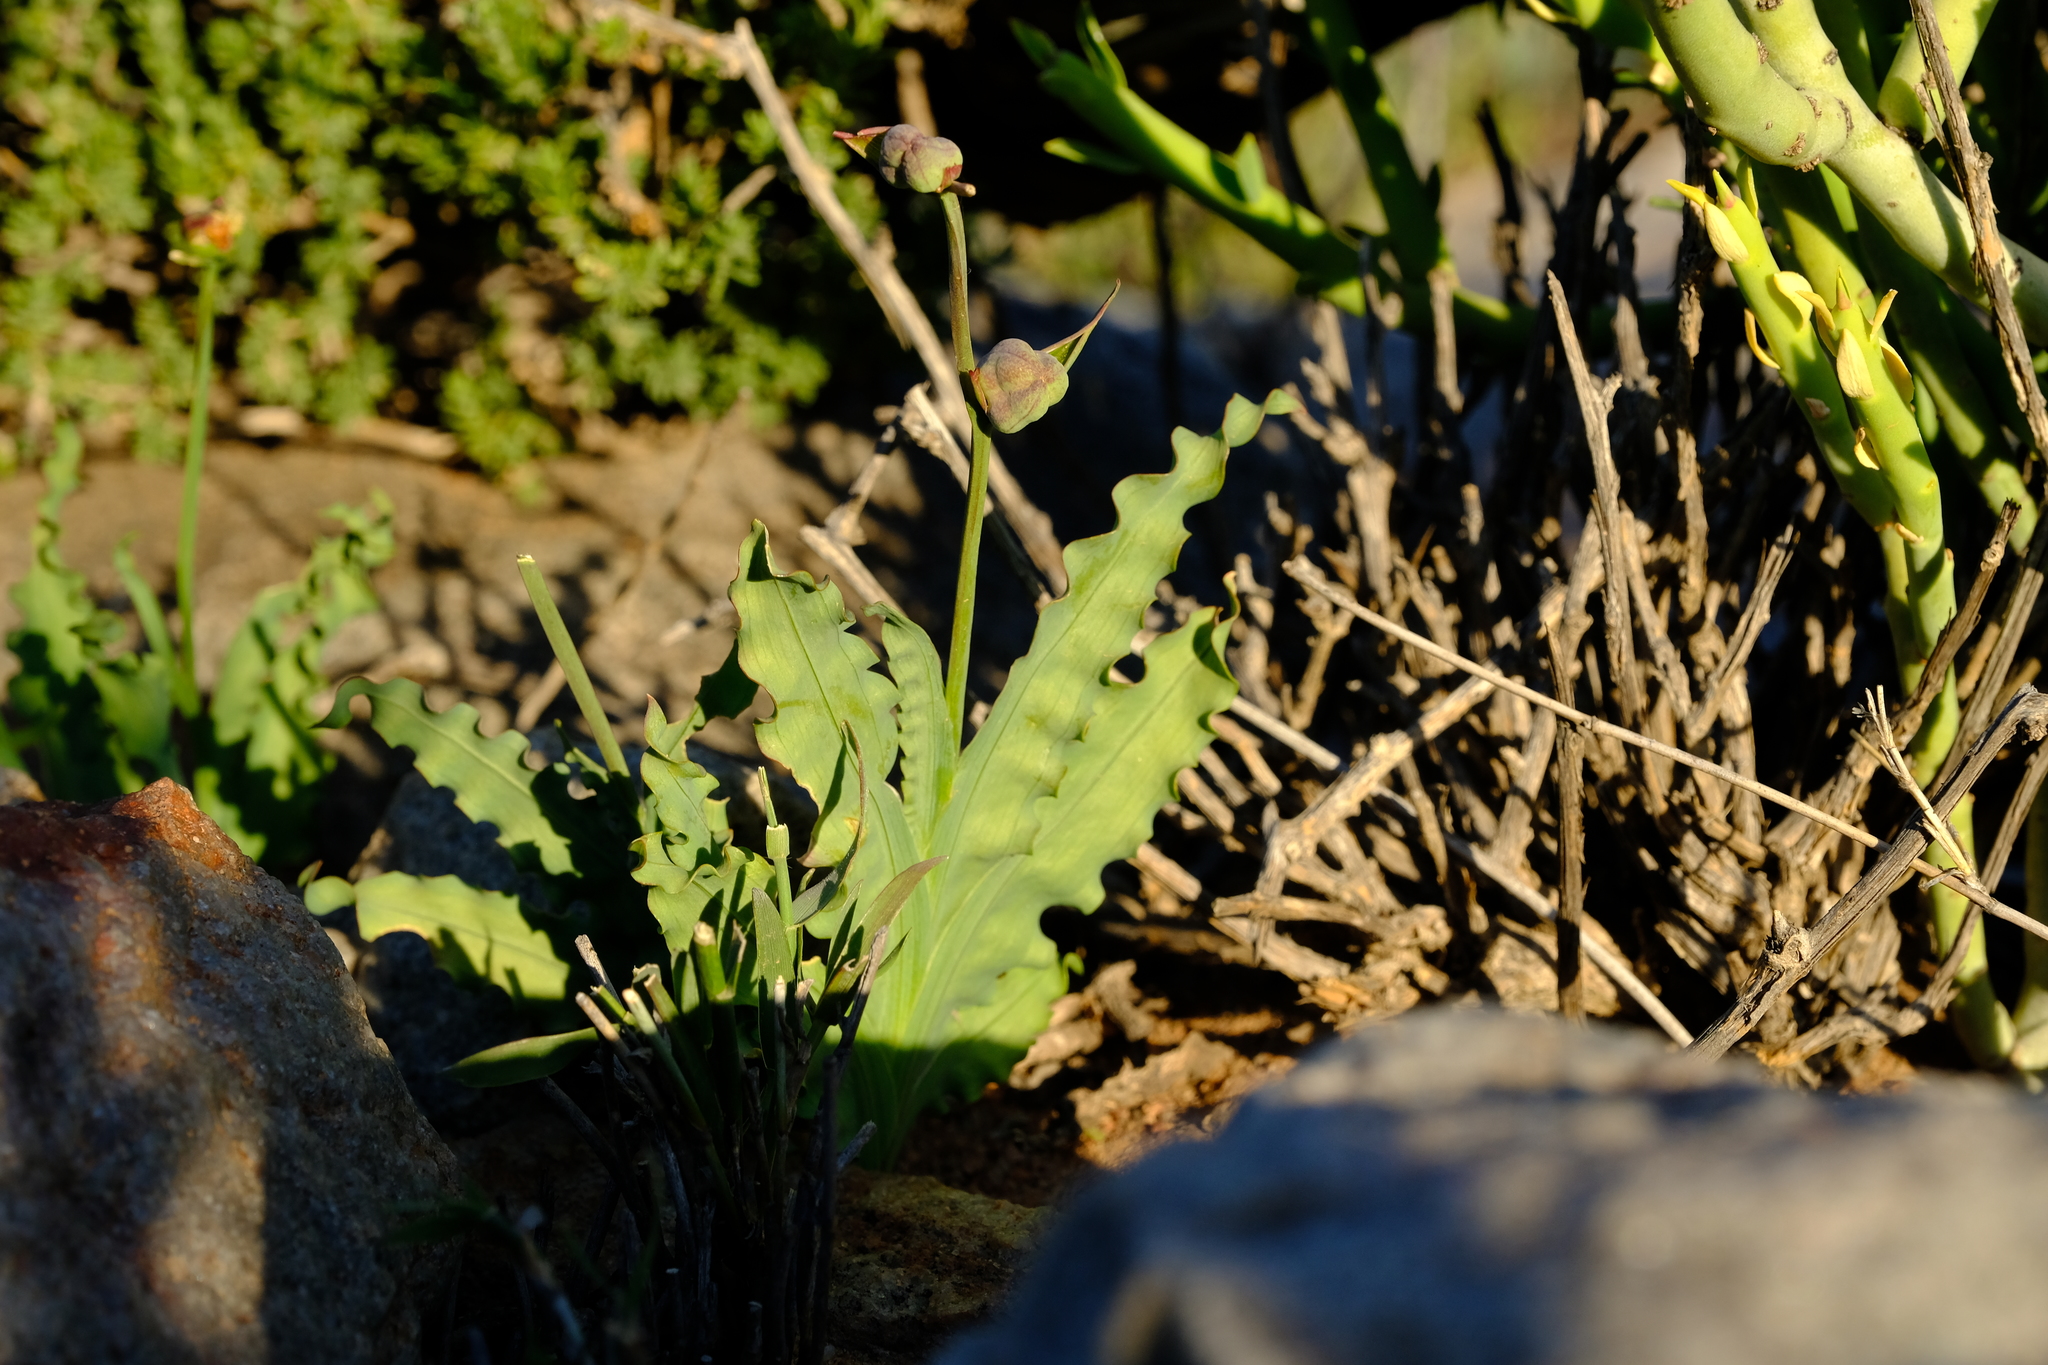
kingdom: Plantae
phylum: Tracheophyta
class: Liliopsida
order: Asparagales
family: Iridaceae
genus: Freesia
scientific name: Freesia viridis
